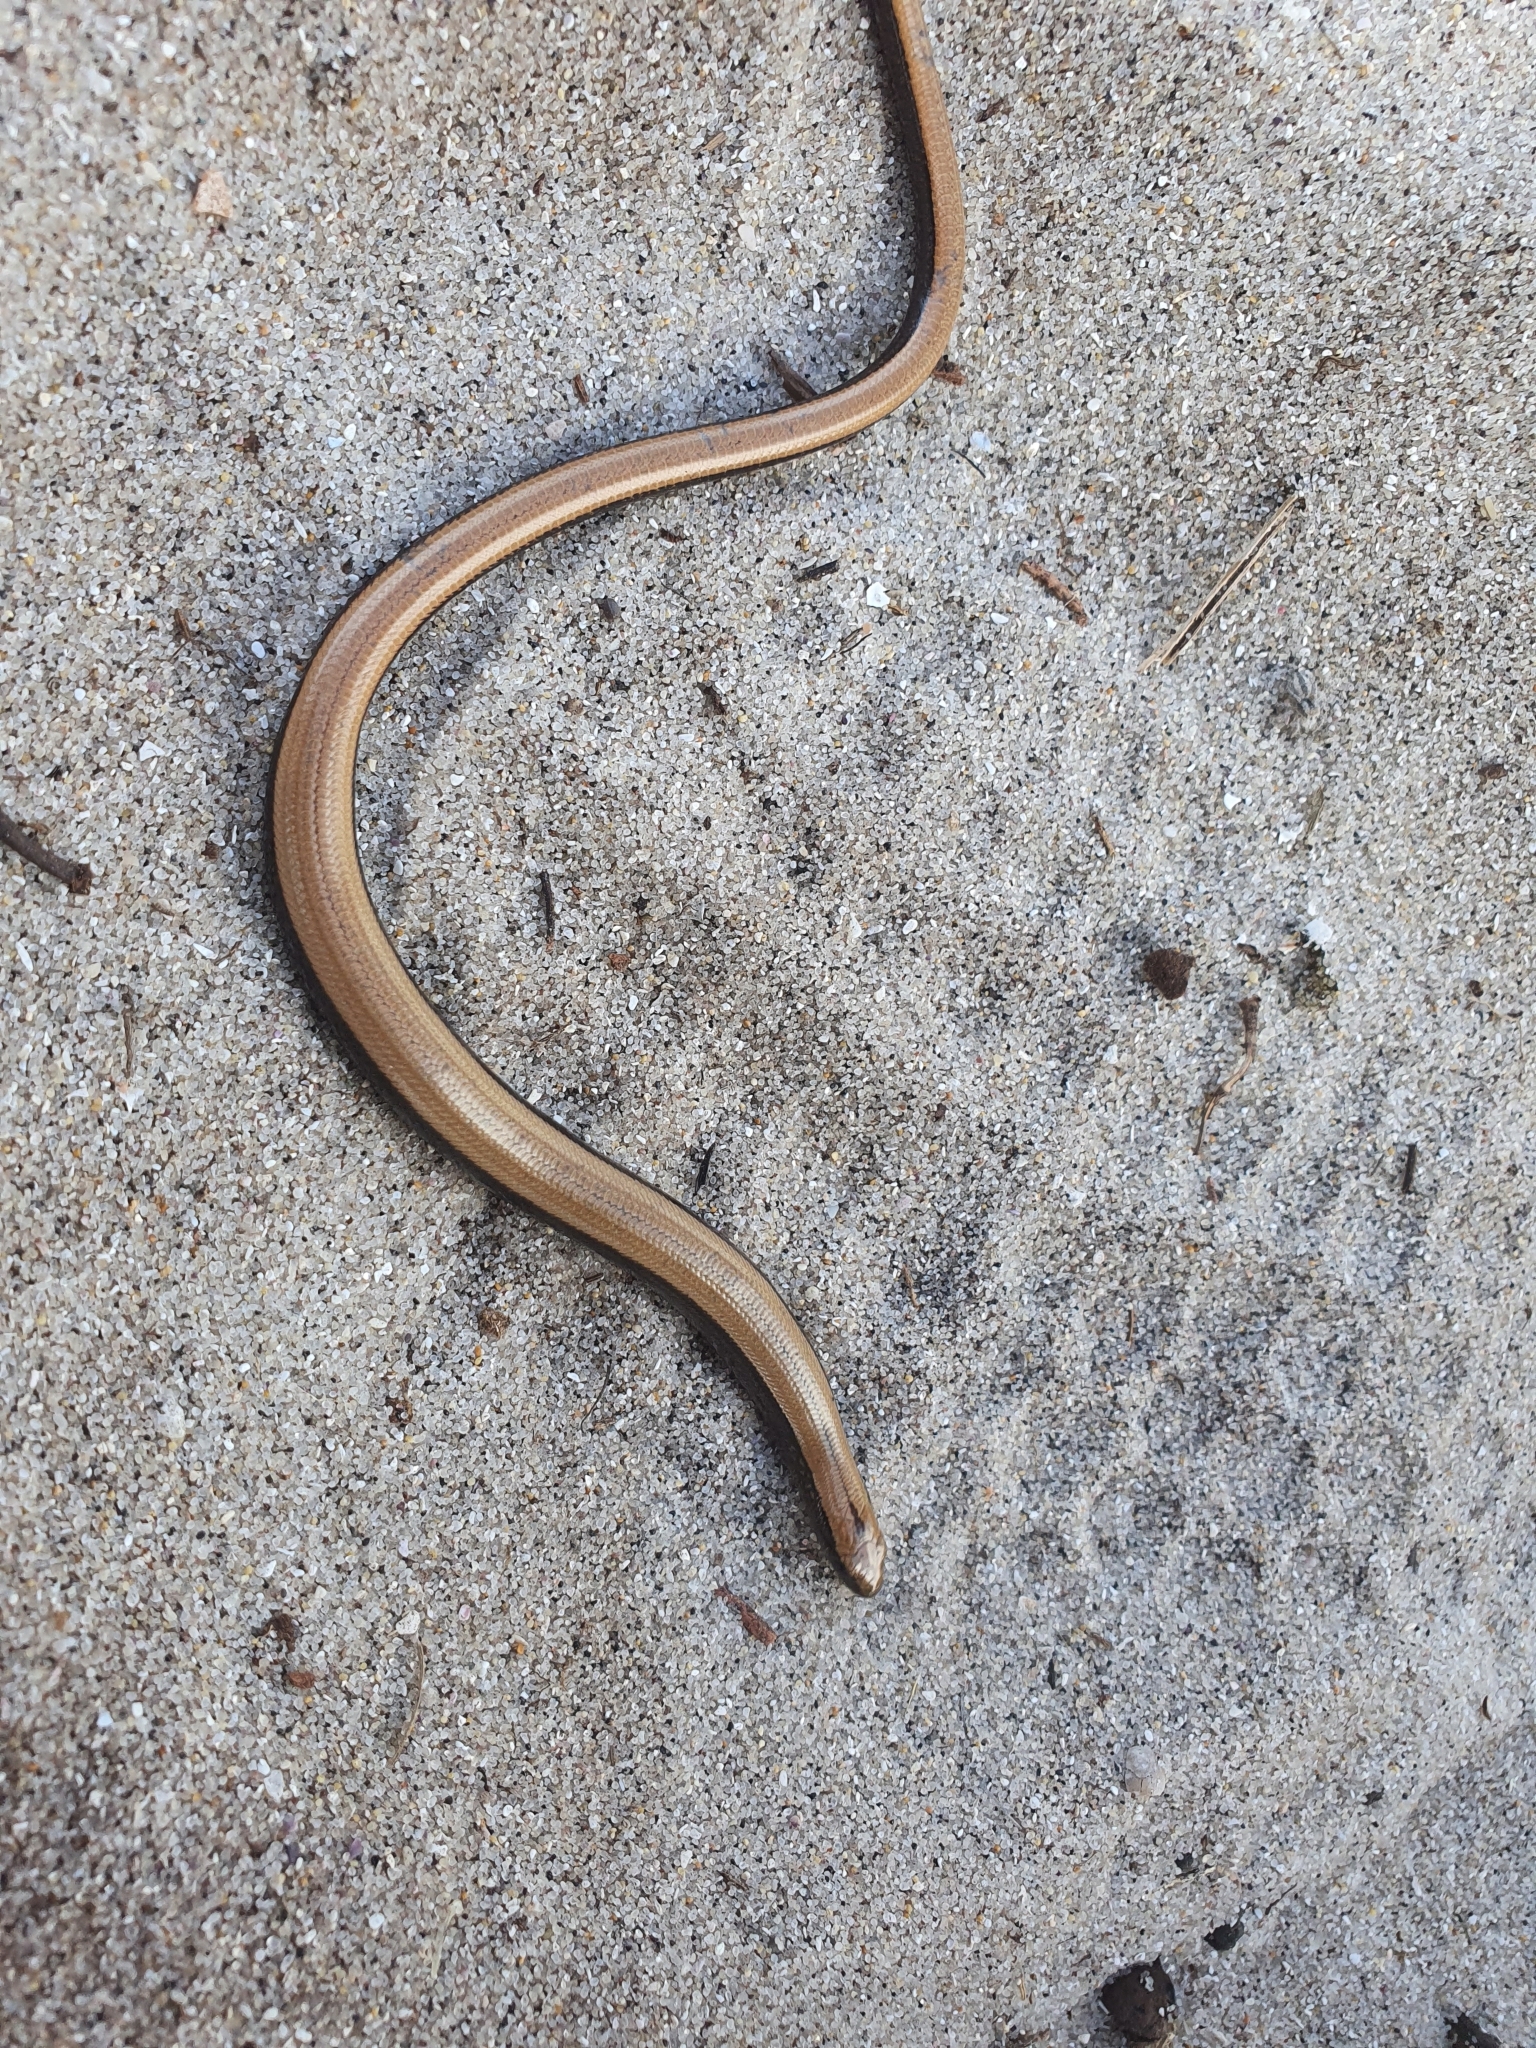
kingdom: Animalia
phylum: Chordata
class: Squamata
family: Anguidae
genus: Anguis
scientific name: Anguis fragilis
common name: Slow worm
